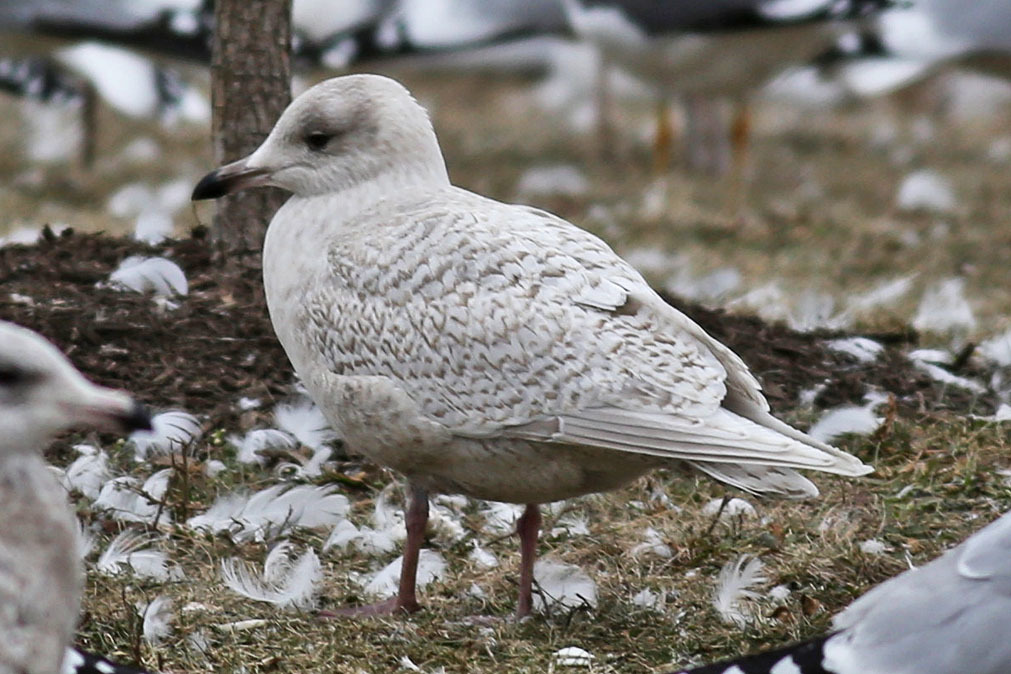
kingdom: Animalia
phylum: Chordata
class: Aves
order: Charadriiformes
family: Laridae
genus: Larus
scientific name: Larus glaucoides
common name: Iceland gull
